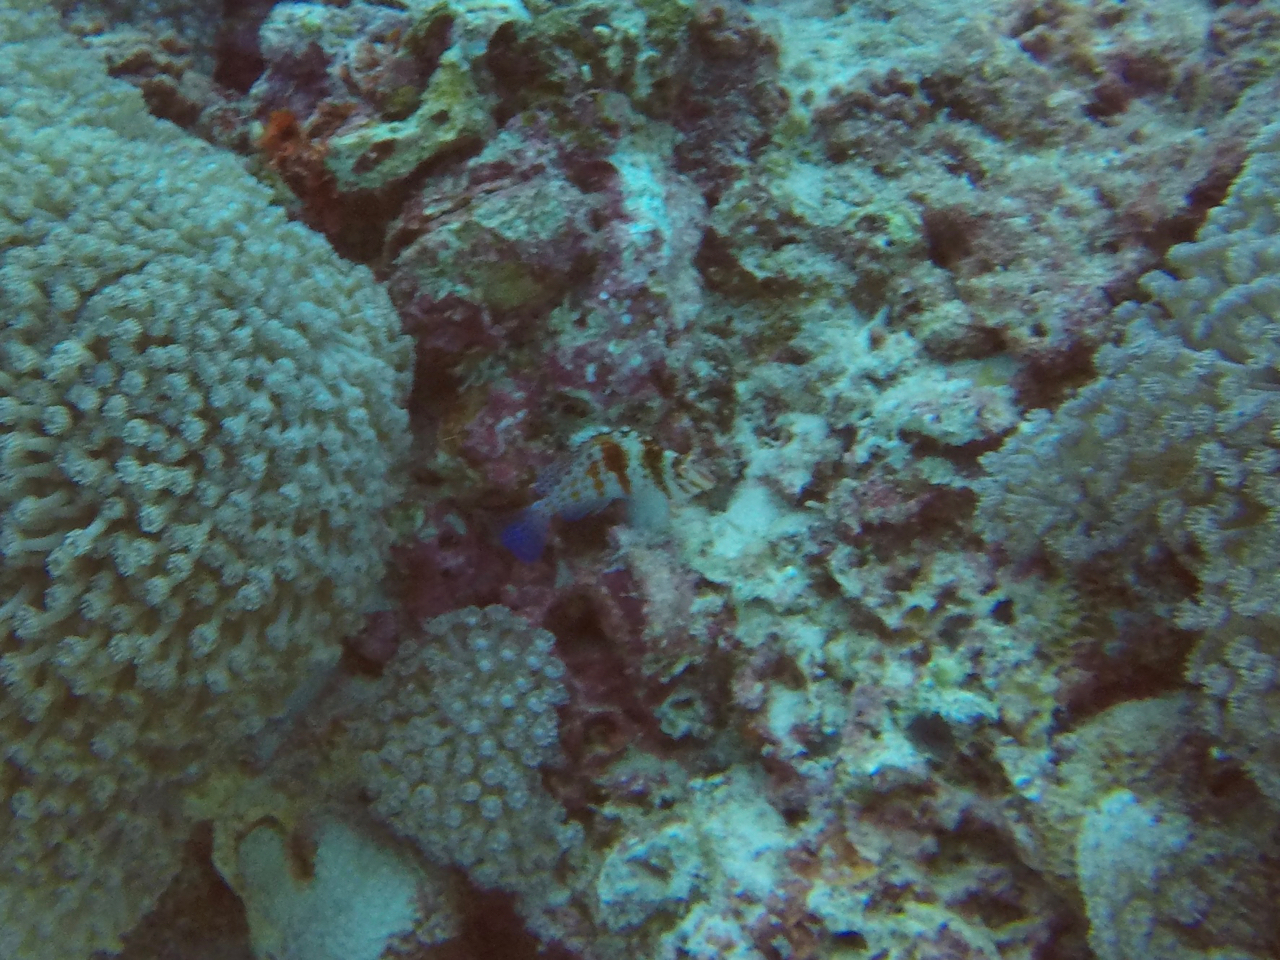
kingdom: Animalia
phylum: Chordata
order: Perciformes
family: Cirrhitidae
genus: Cirrhitichthys
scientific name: Cirrhitichthys falco
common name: Coral hawkfish
